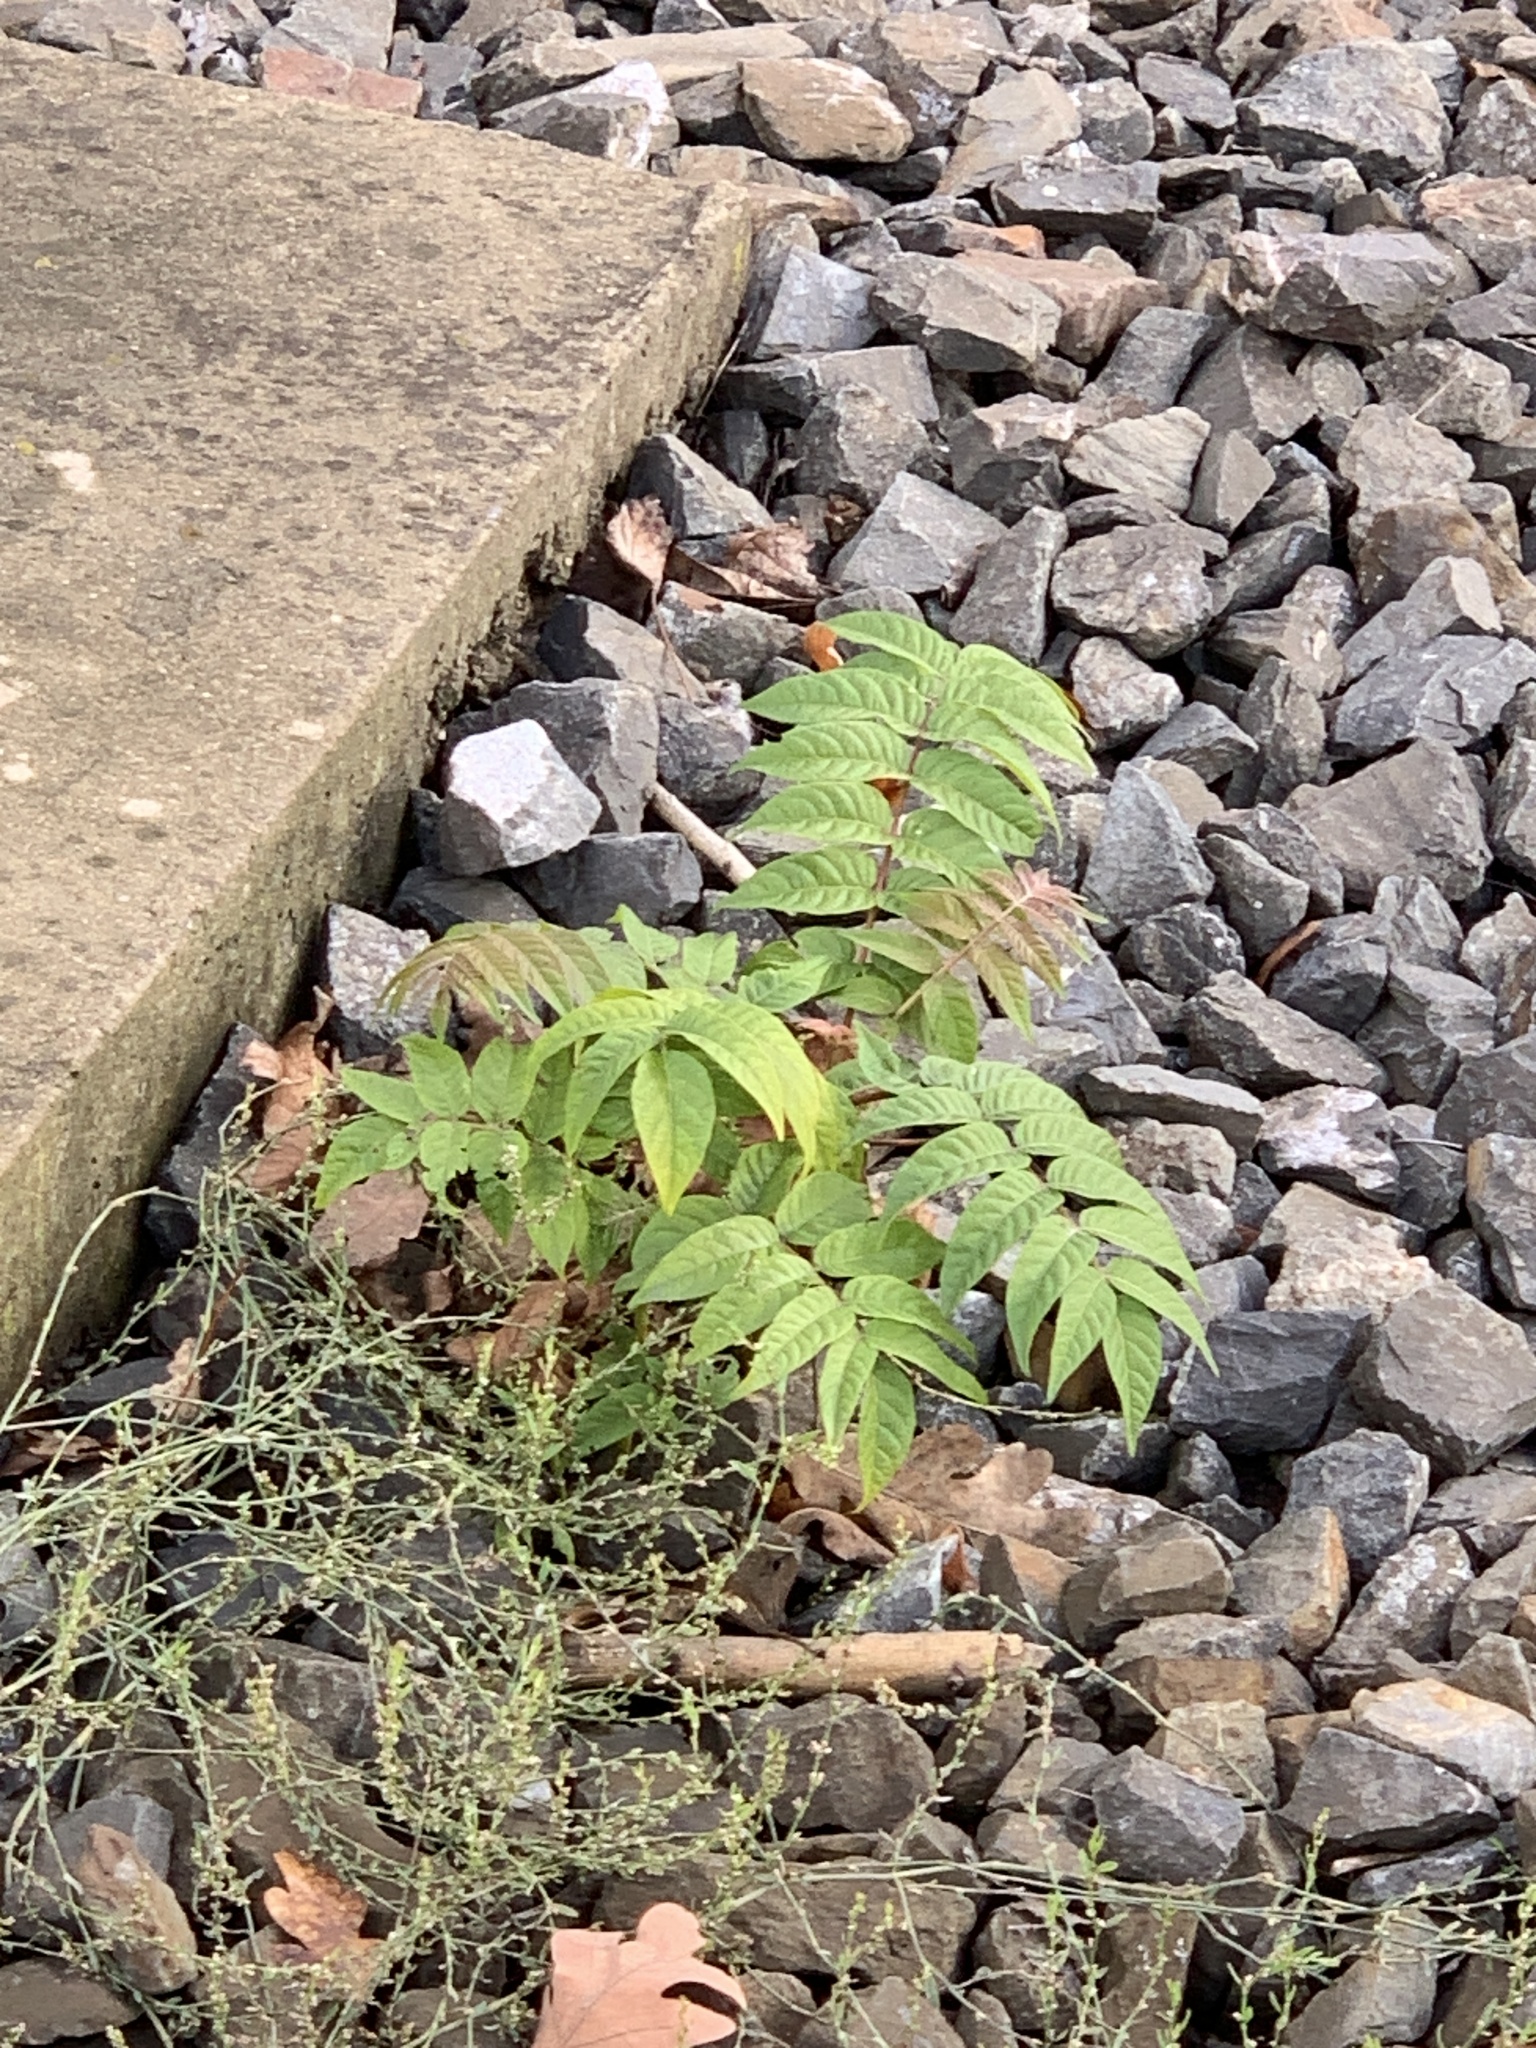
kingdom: Plantae
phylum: Tracheophyta
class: Magnoliopsida
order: Sapindales
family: Simaroubaceae
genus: Ailanthus
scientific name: Ailanthus altissima
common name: Tree-of-heaven
